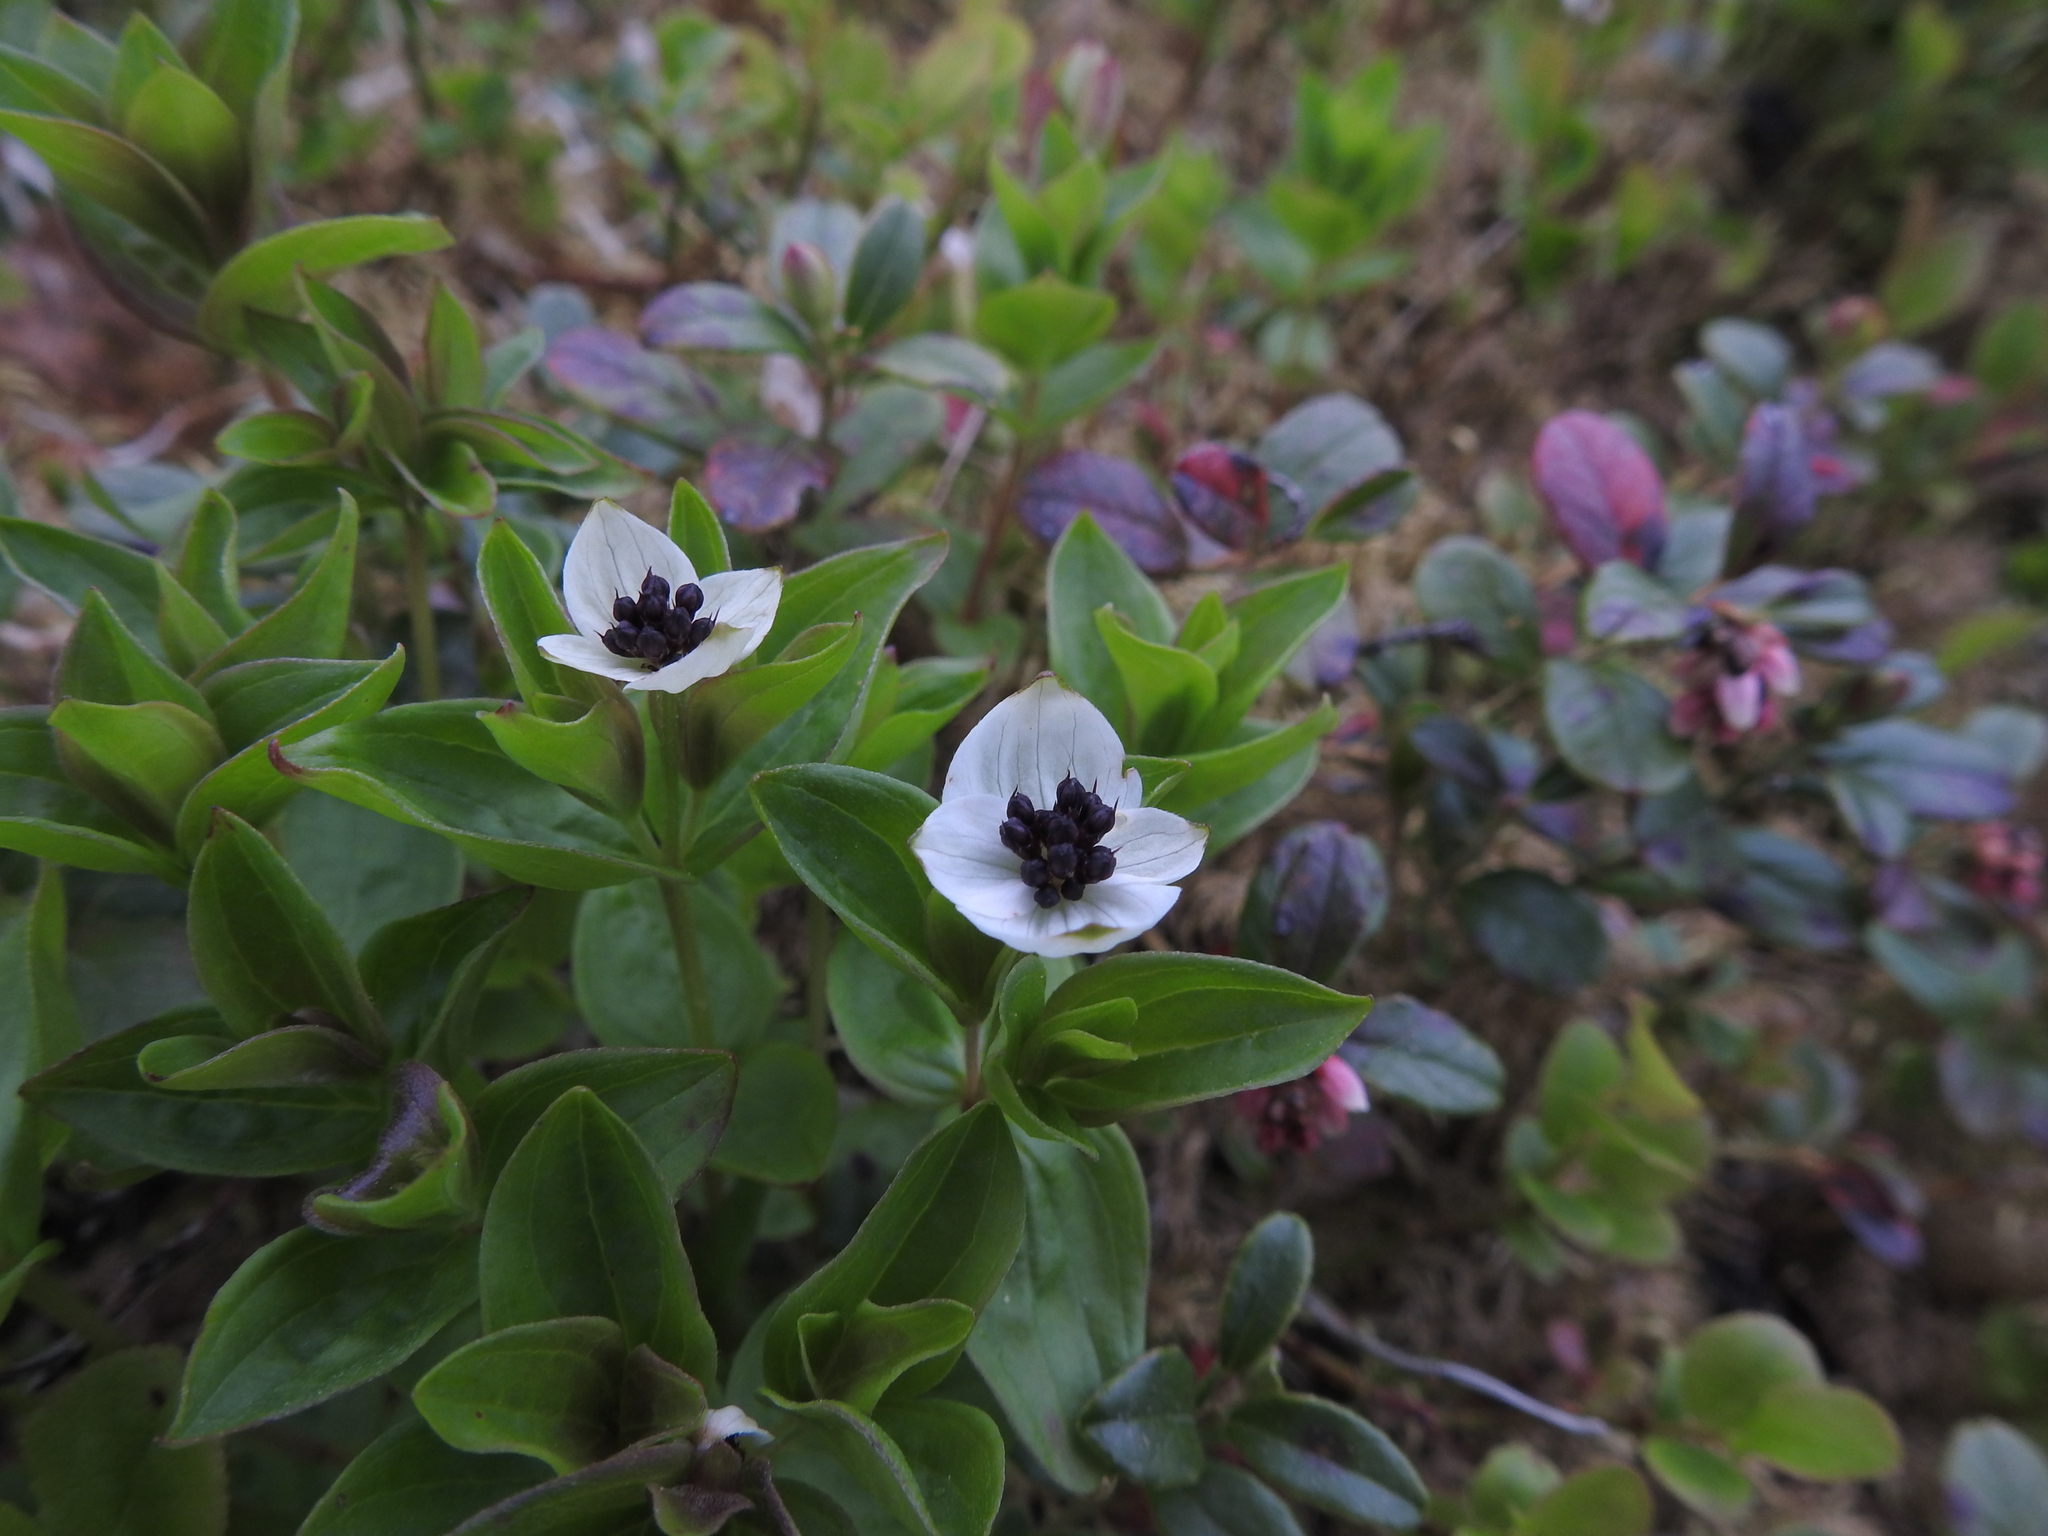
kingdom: Plantae
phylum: Tracheophyta
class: Magnoliopsida
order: Cornales
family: Cornaceae
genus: Cornus
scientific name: Cornus suecica
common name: Dwarf cornel
